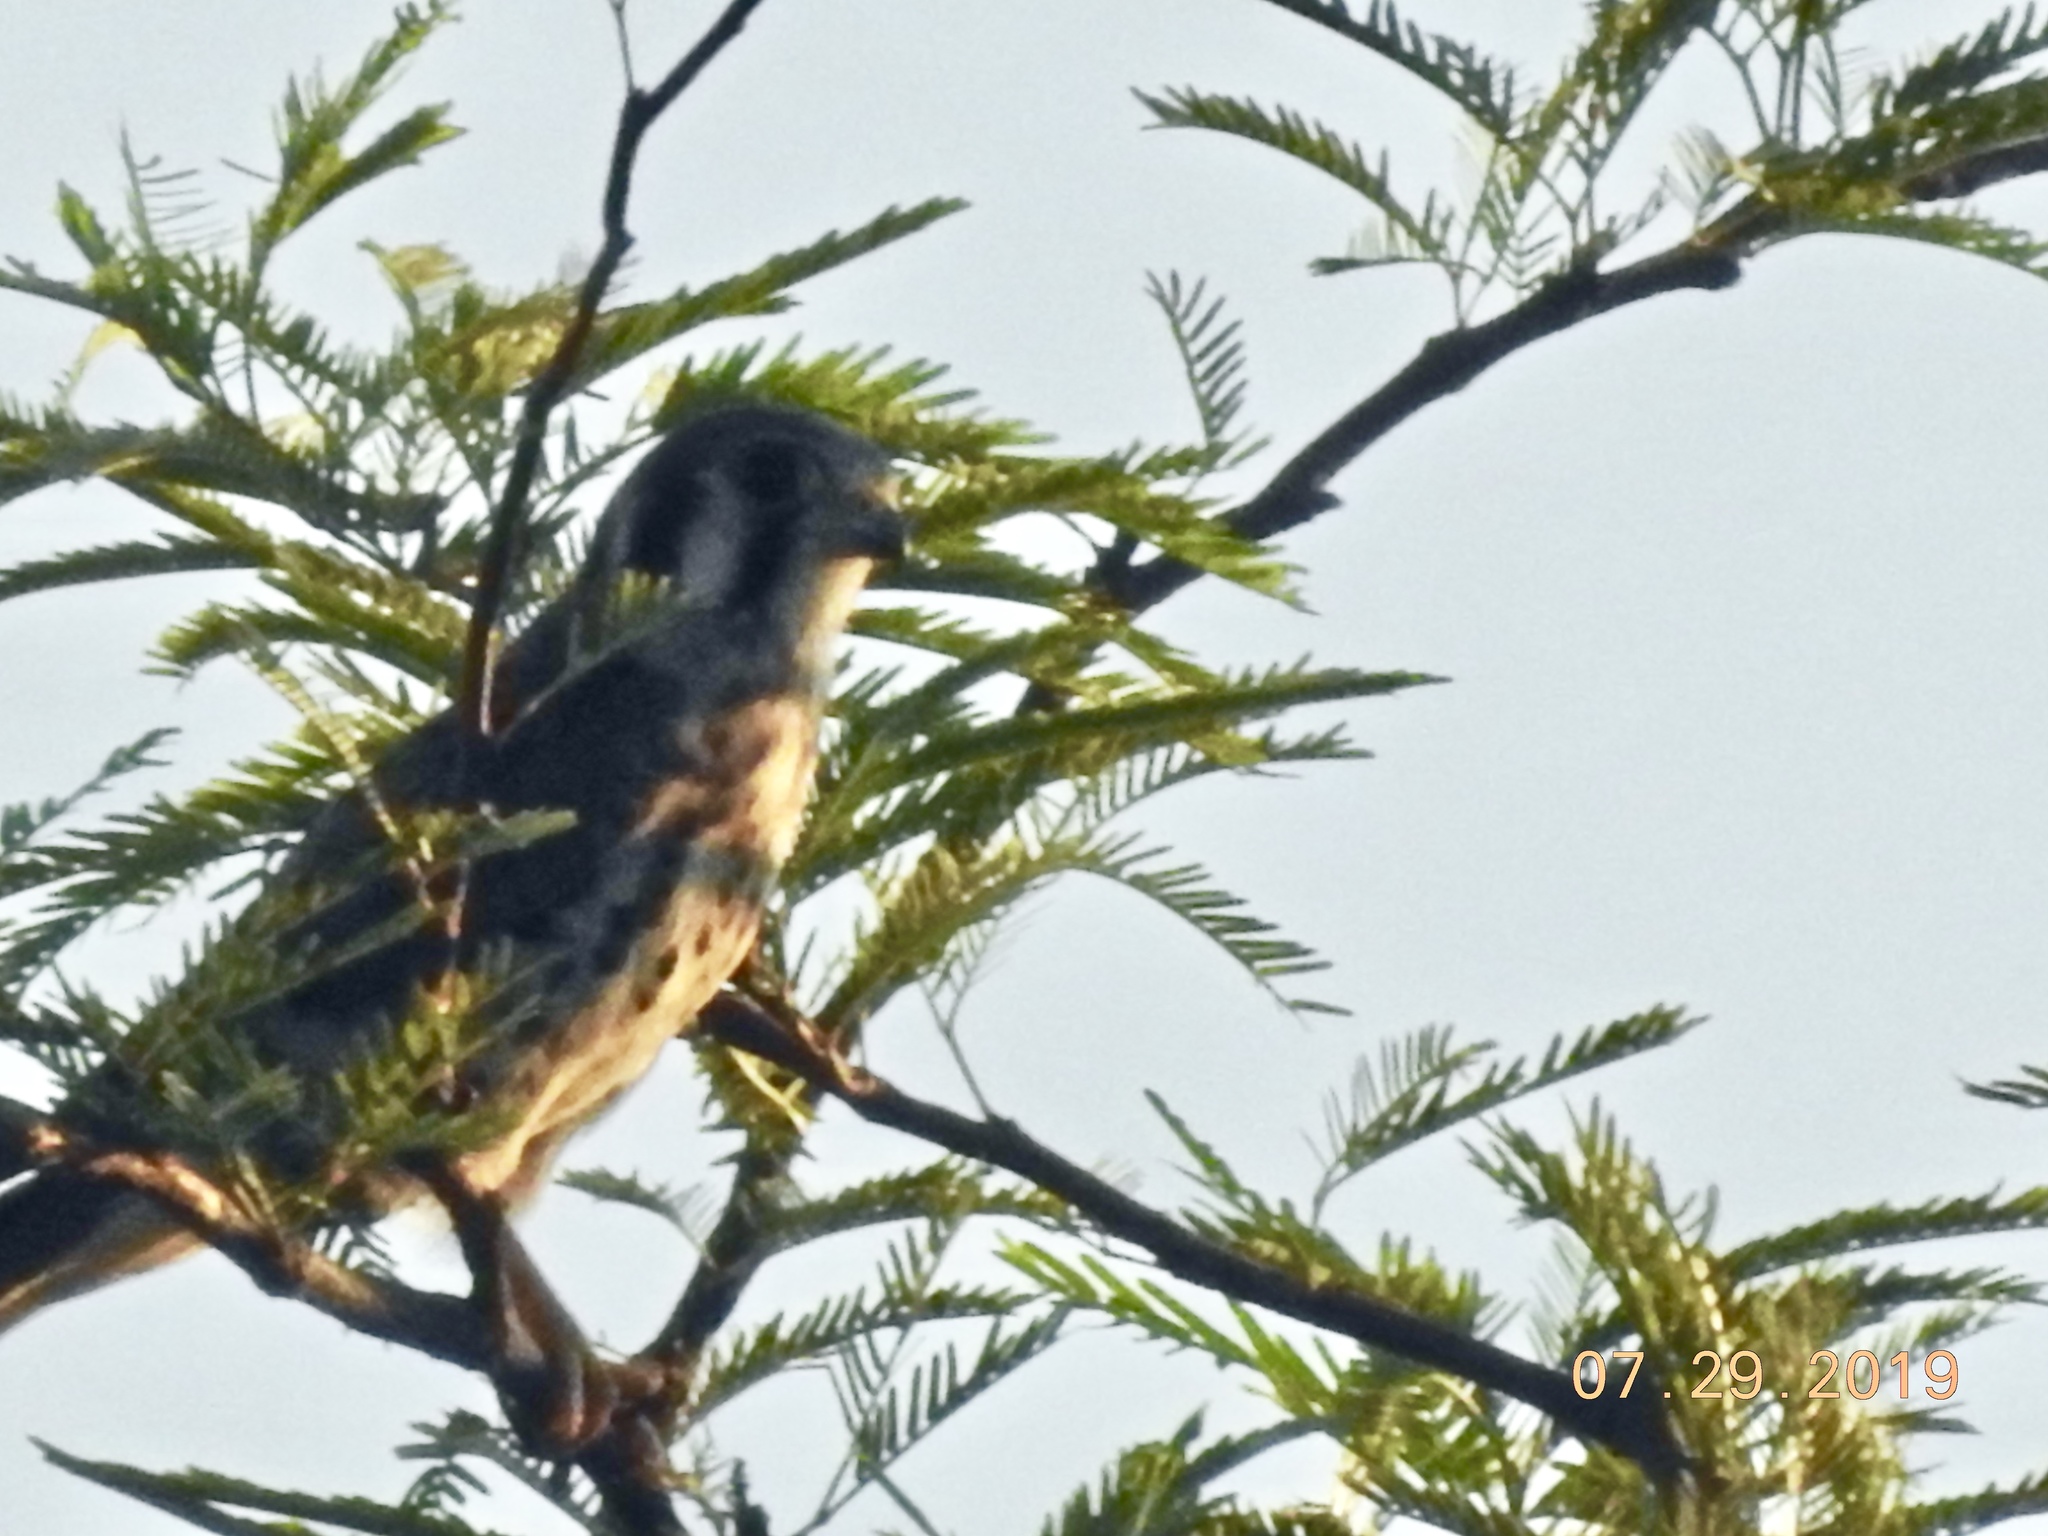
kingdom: Animalia
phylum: Chordata
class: Aves
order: Falconiformes
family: Falconidae
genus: Falco
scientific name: Falco sparverius
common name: American kestrel
